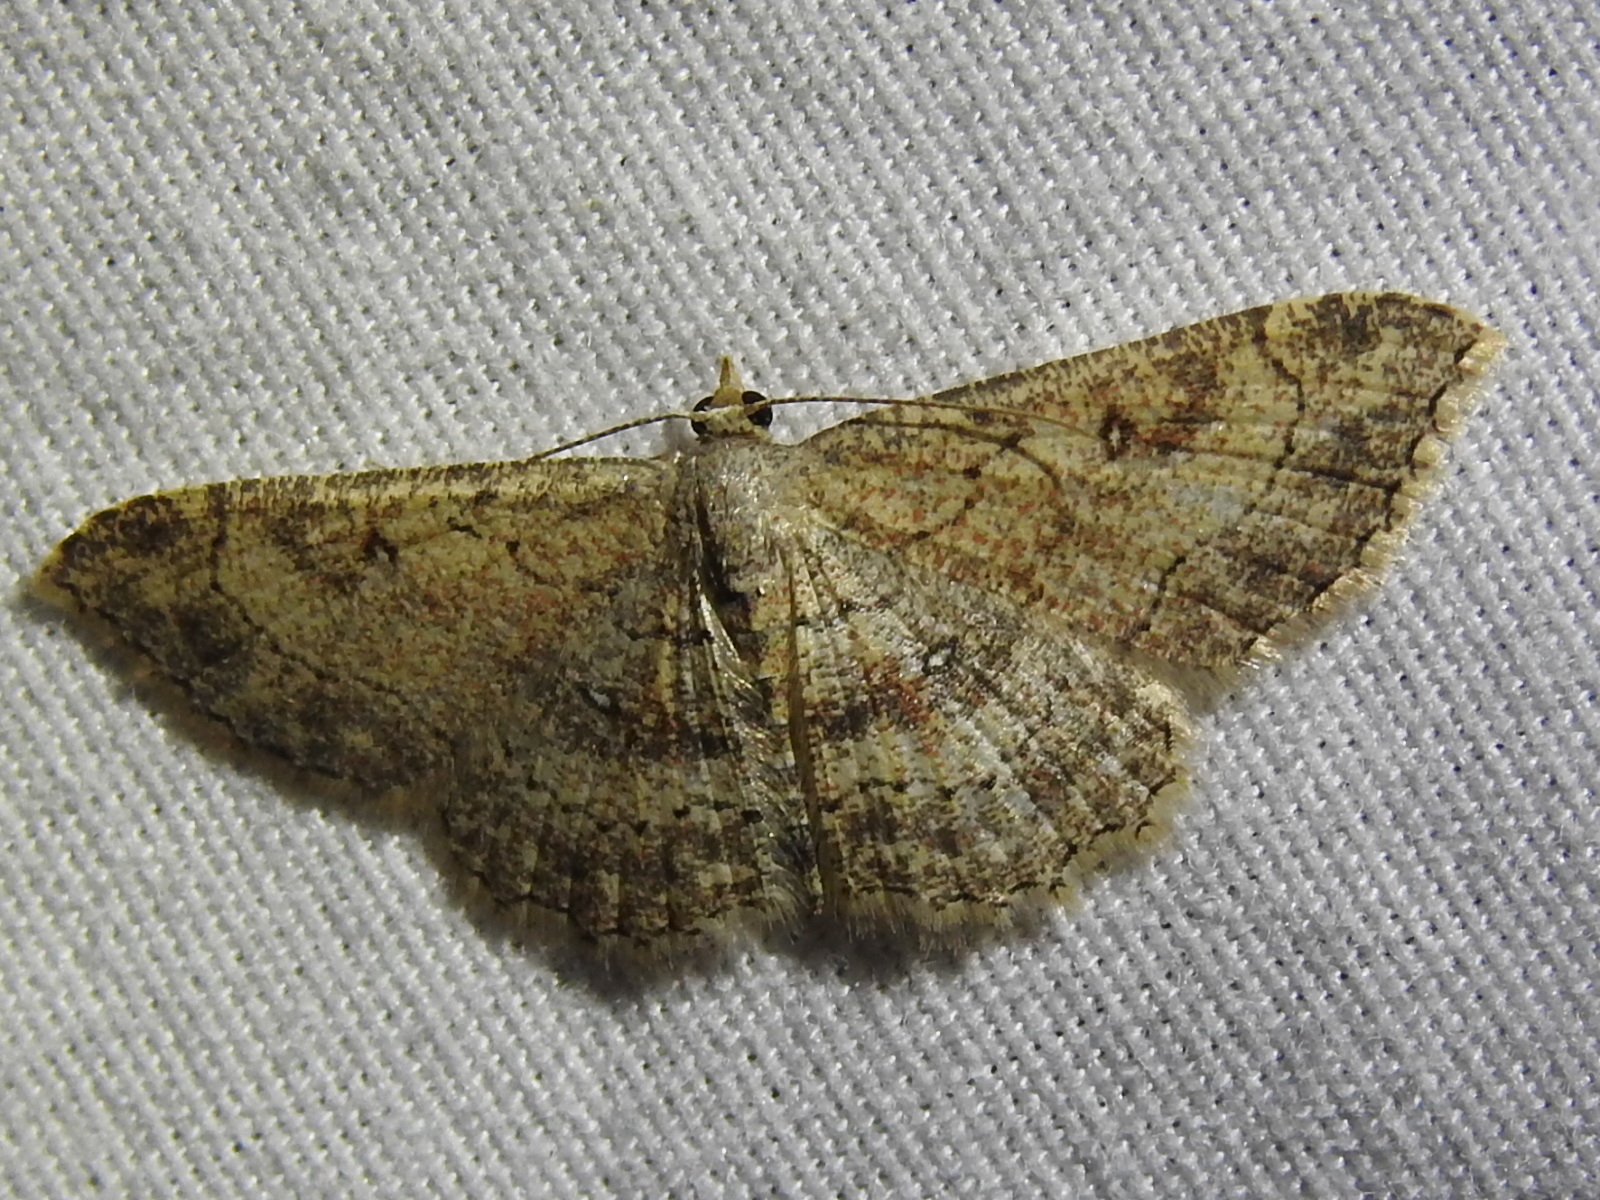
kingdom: Animalia
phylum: Arthropoda
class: Insecta
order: Lepidoptera
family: Geometridae
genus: Cyclophora
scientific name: Cyclophora nanaria
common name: Cankerworm
